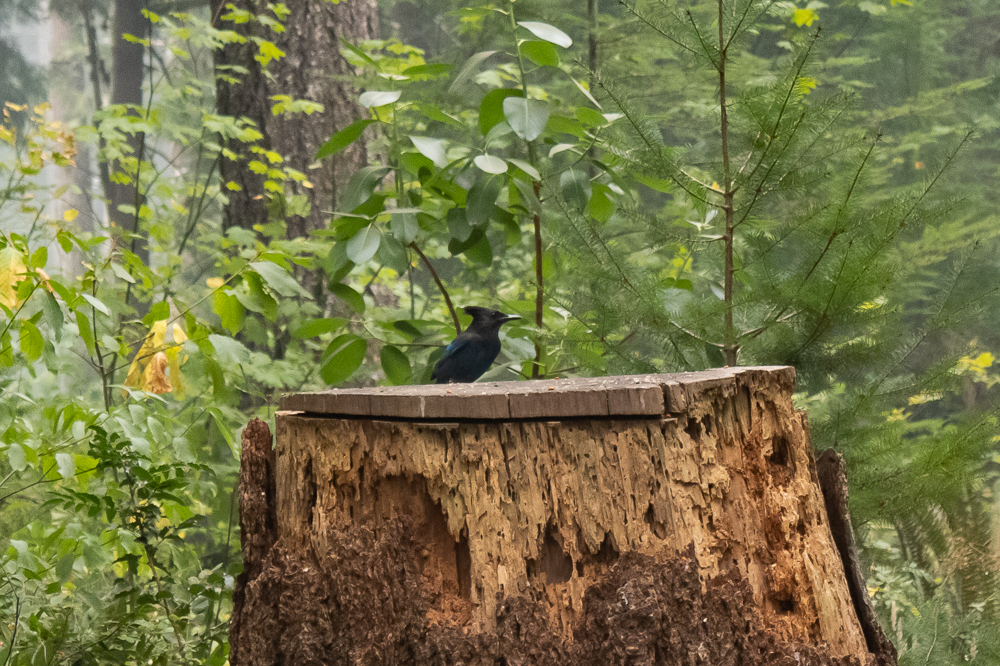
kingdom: Animalia
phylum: Chordata
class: Aves
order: Passeriformes
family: Corvidae
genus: Cyanocitta
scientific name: Cyanocitta stelleri
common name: Steller's jay
